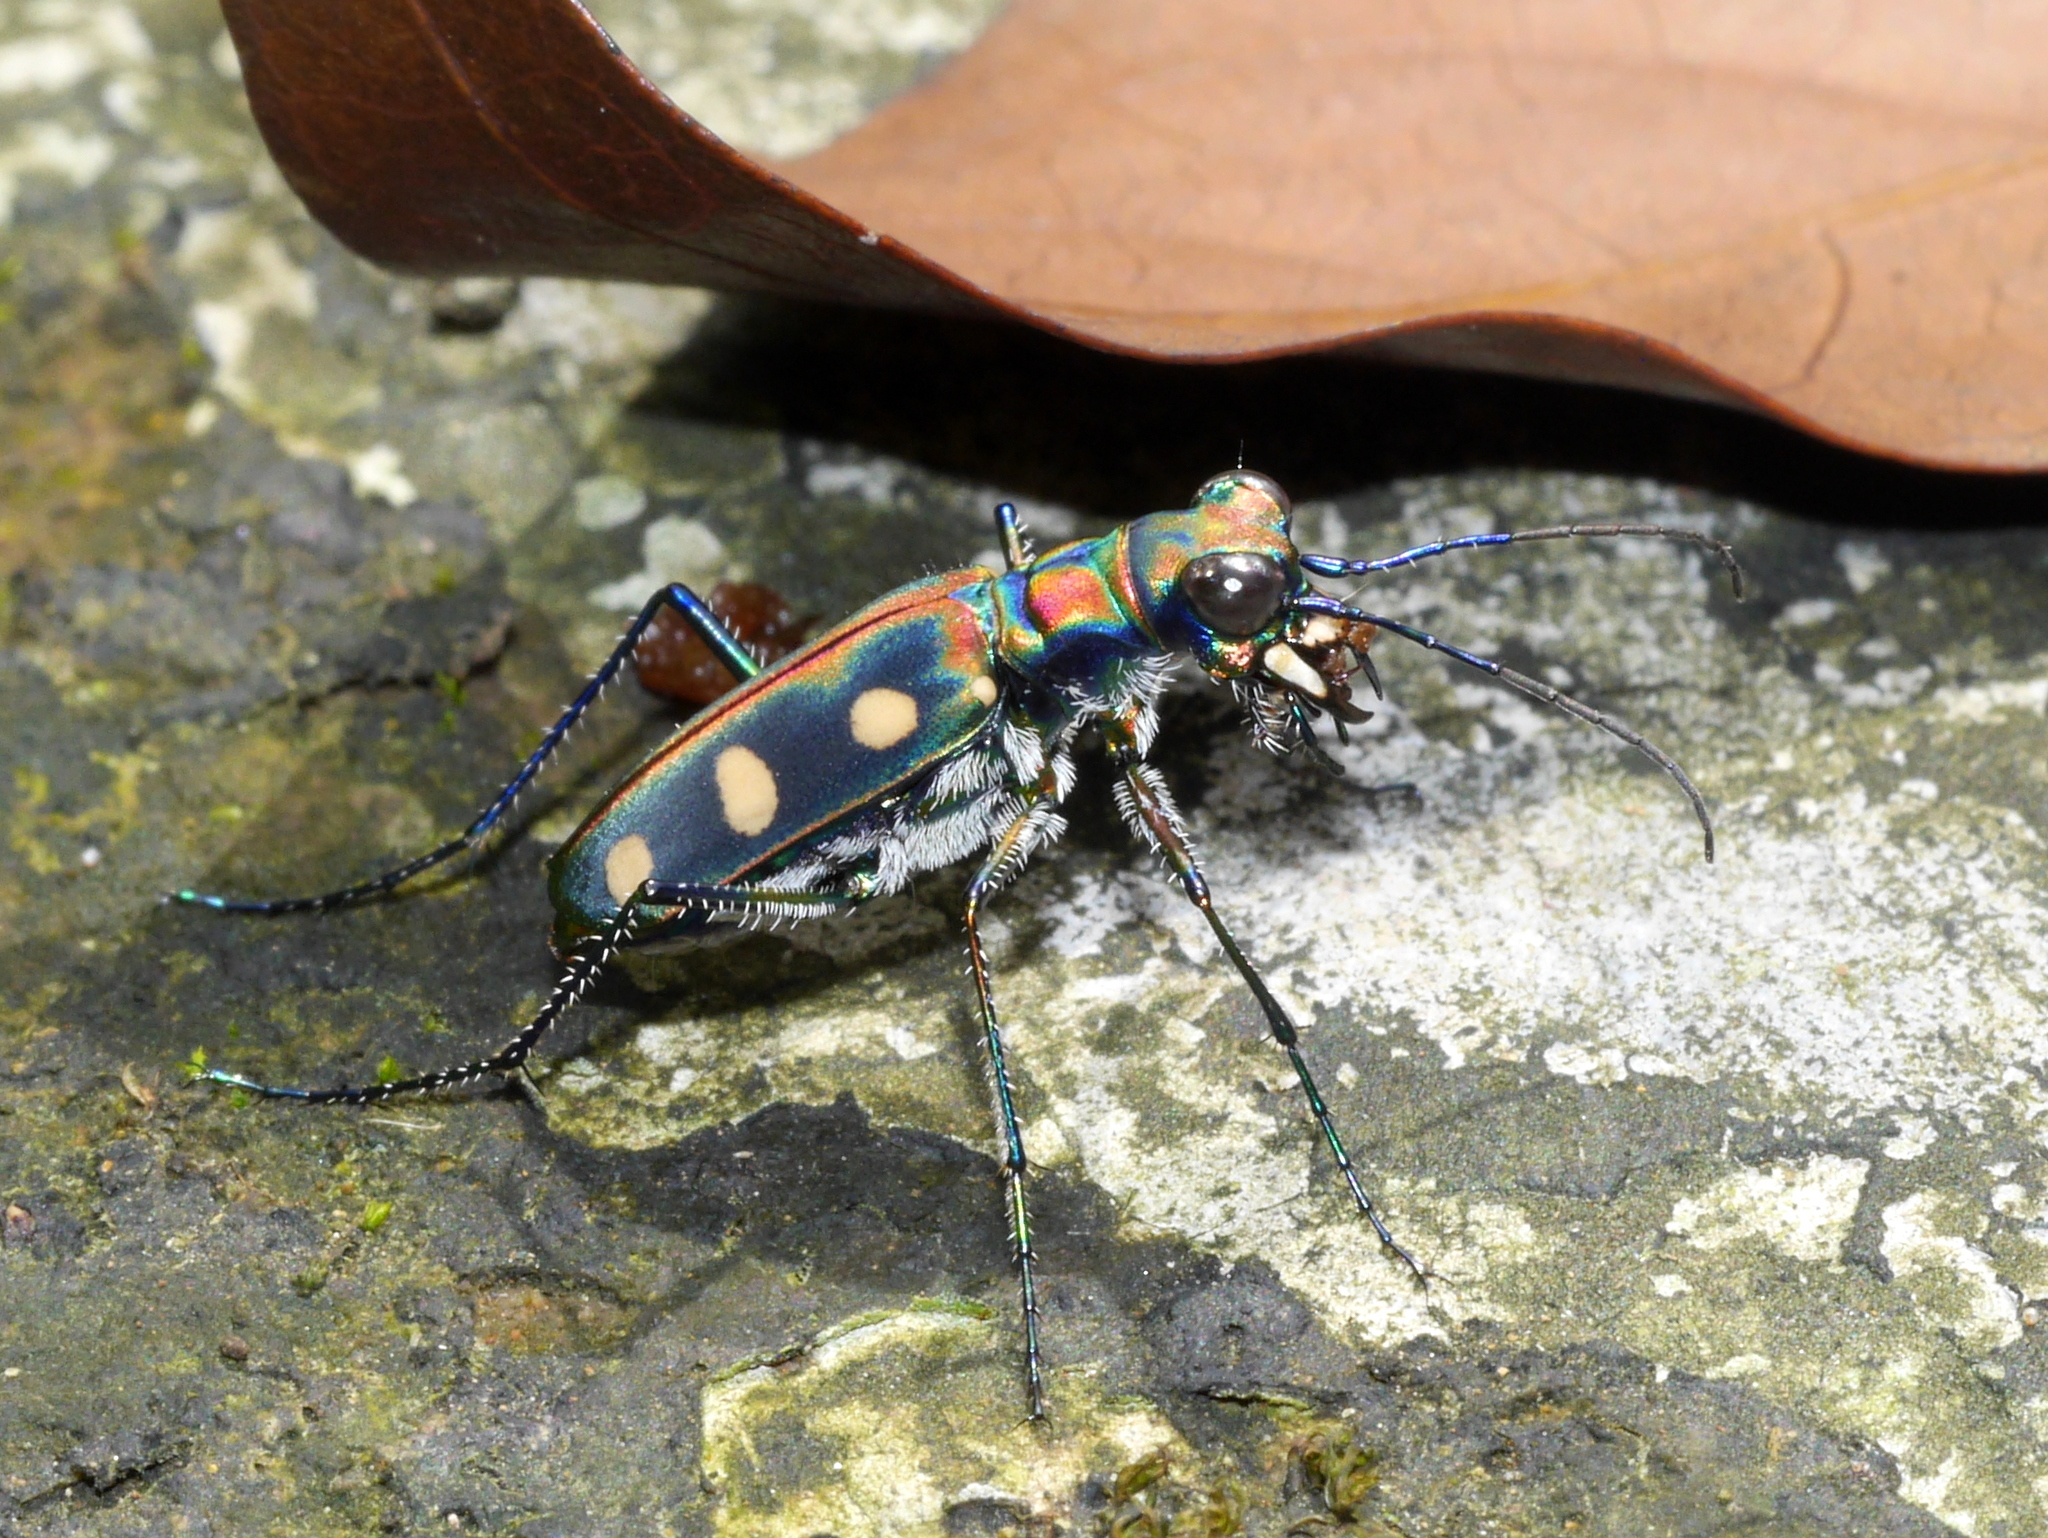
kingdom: Animalia
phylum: Arthropoda
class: Insecta
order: Coleoptera
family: Carabidae
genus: Cicindela
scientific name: Cicindela aurulenta
